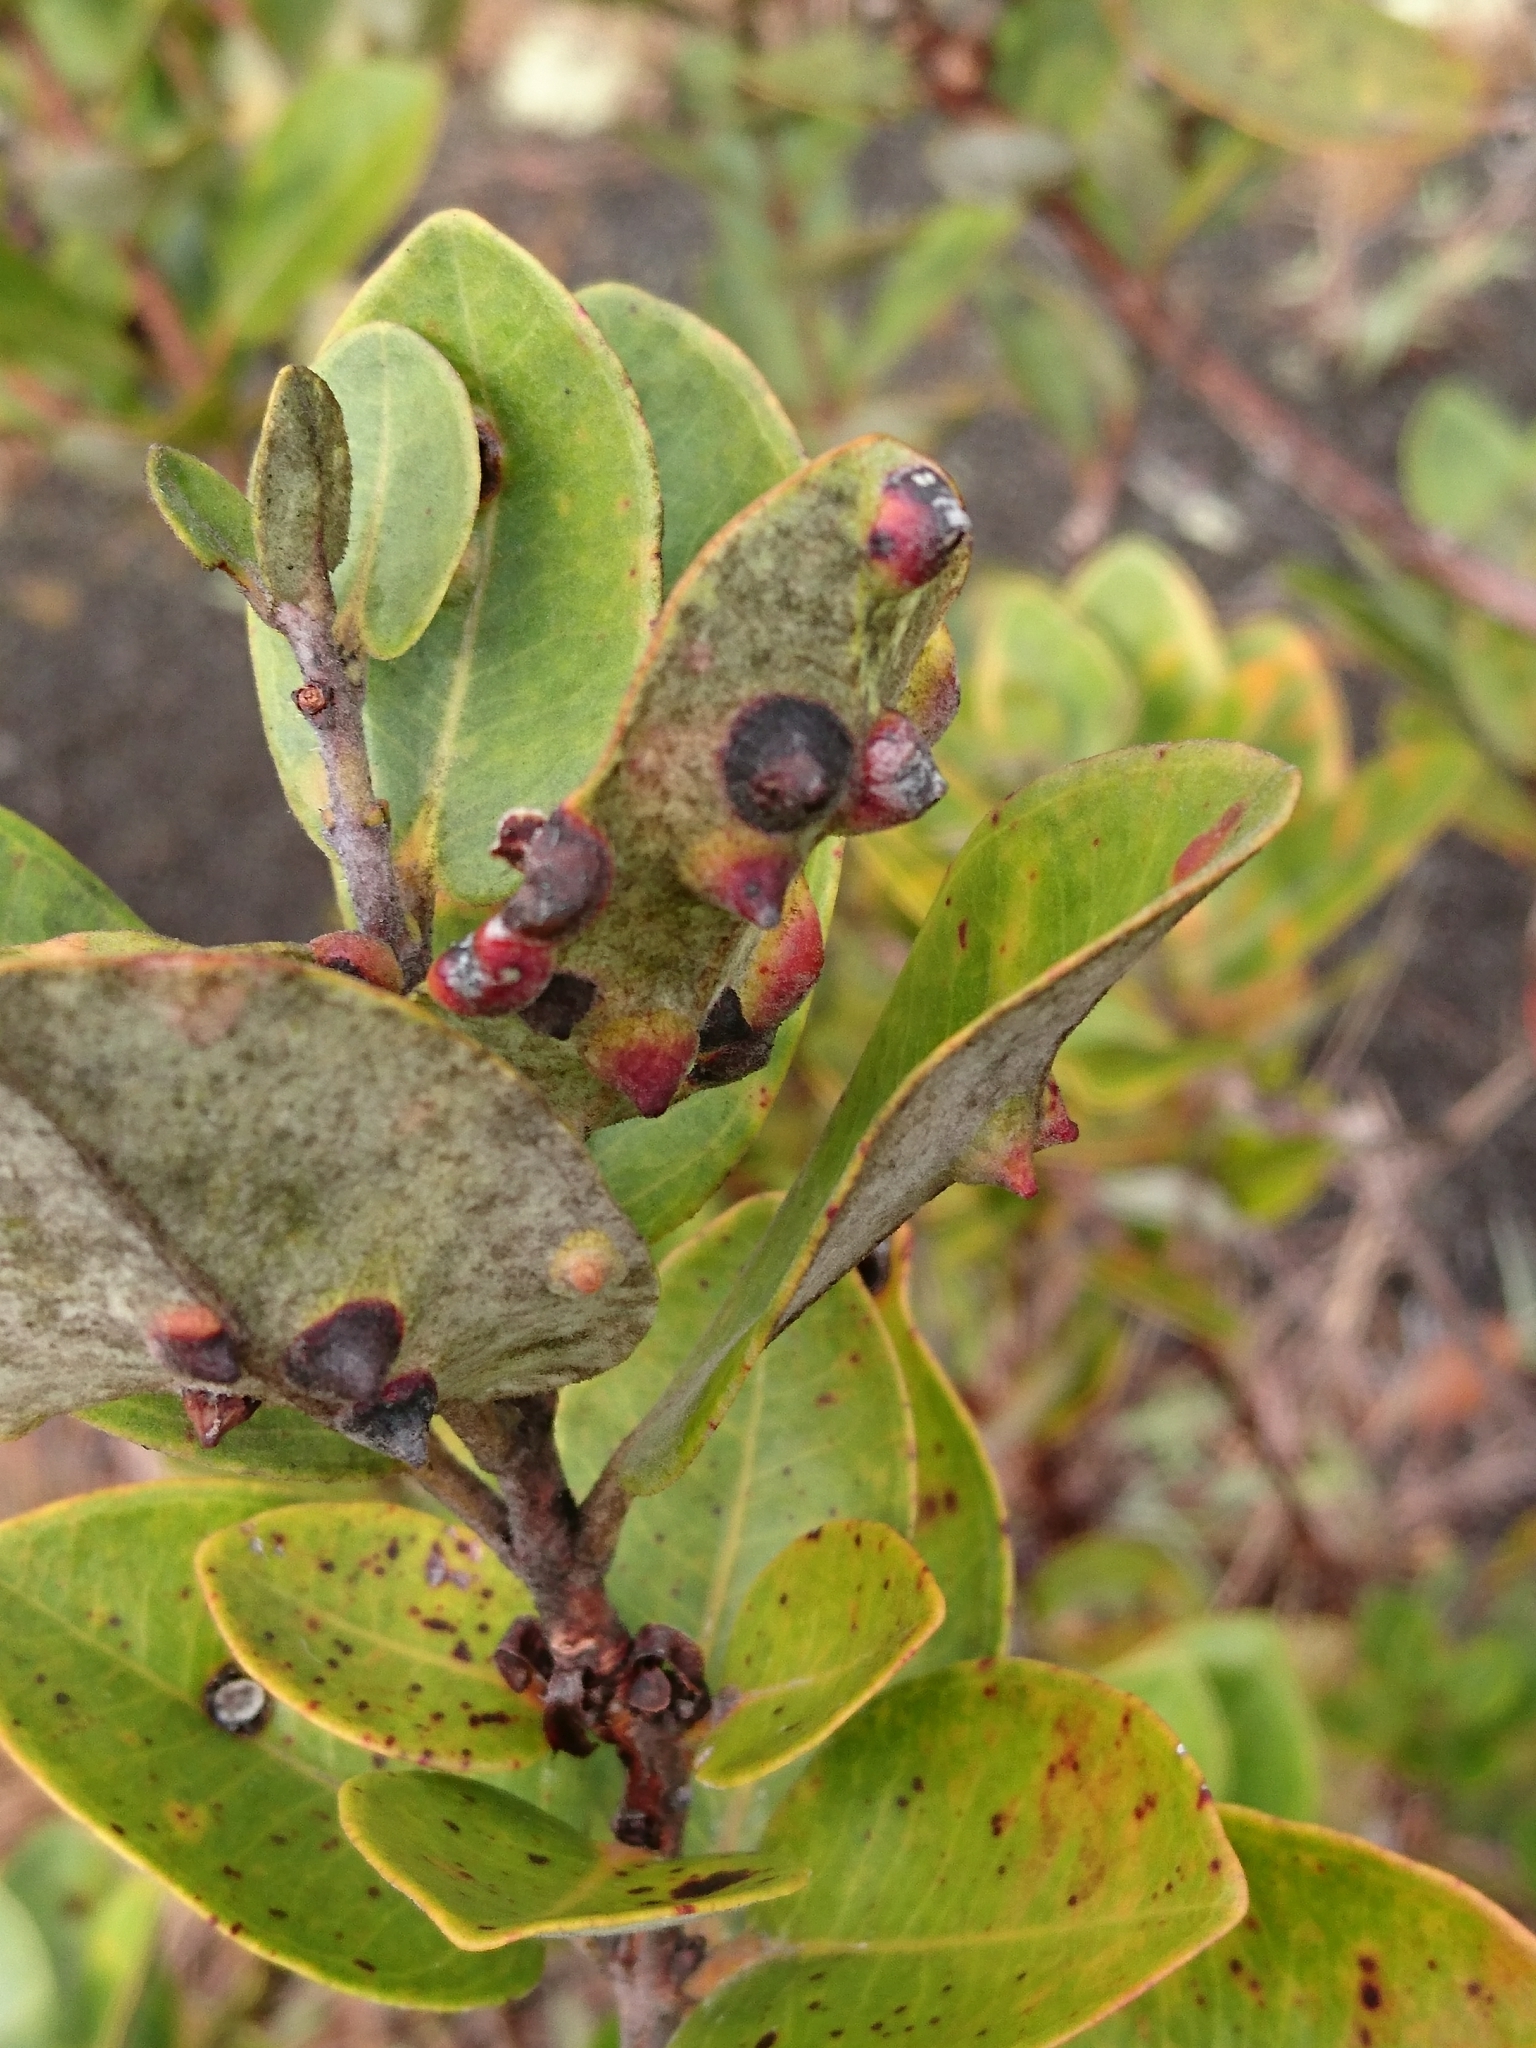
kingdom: Plantae
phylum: Tracheophyta
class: Magnoliopsida
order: Myrtales
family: Myrtaceae
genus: Metrosideros
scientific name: Metrosideros polymorpha
